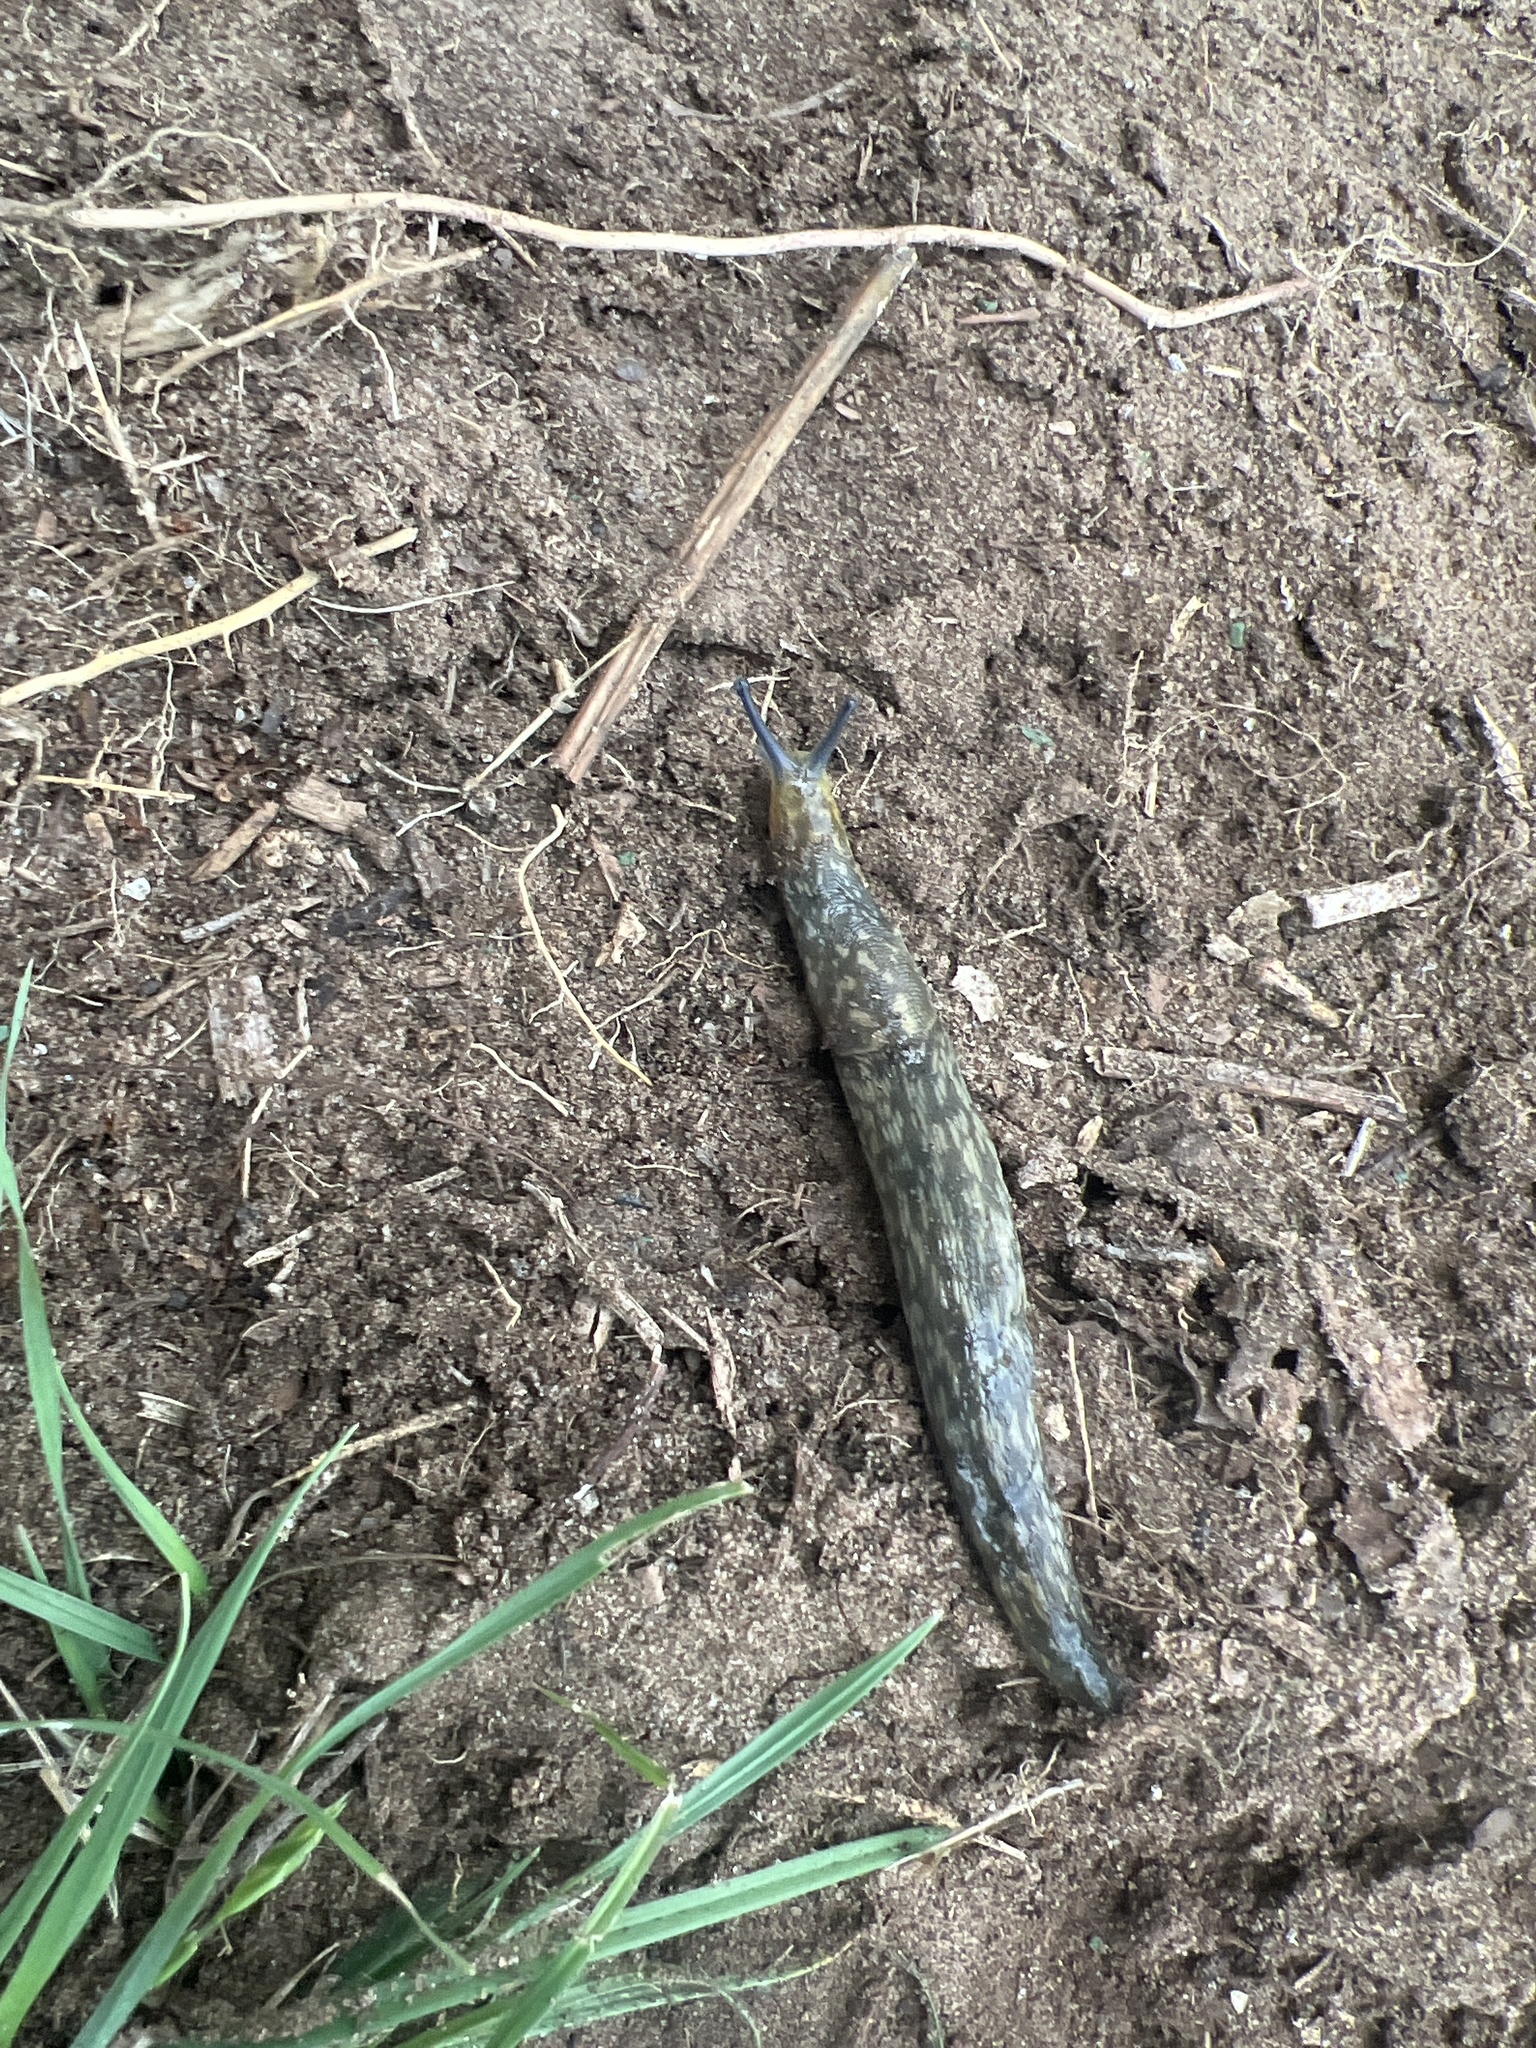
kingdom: Animalia
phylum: Mollusca
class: Gastropoda
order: Stylommatophora
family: Limacidae
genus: Limacus
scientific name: Limacus flavus
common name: Yellow gardenslug
